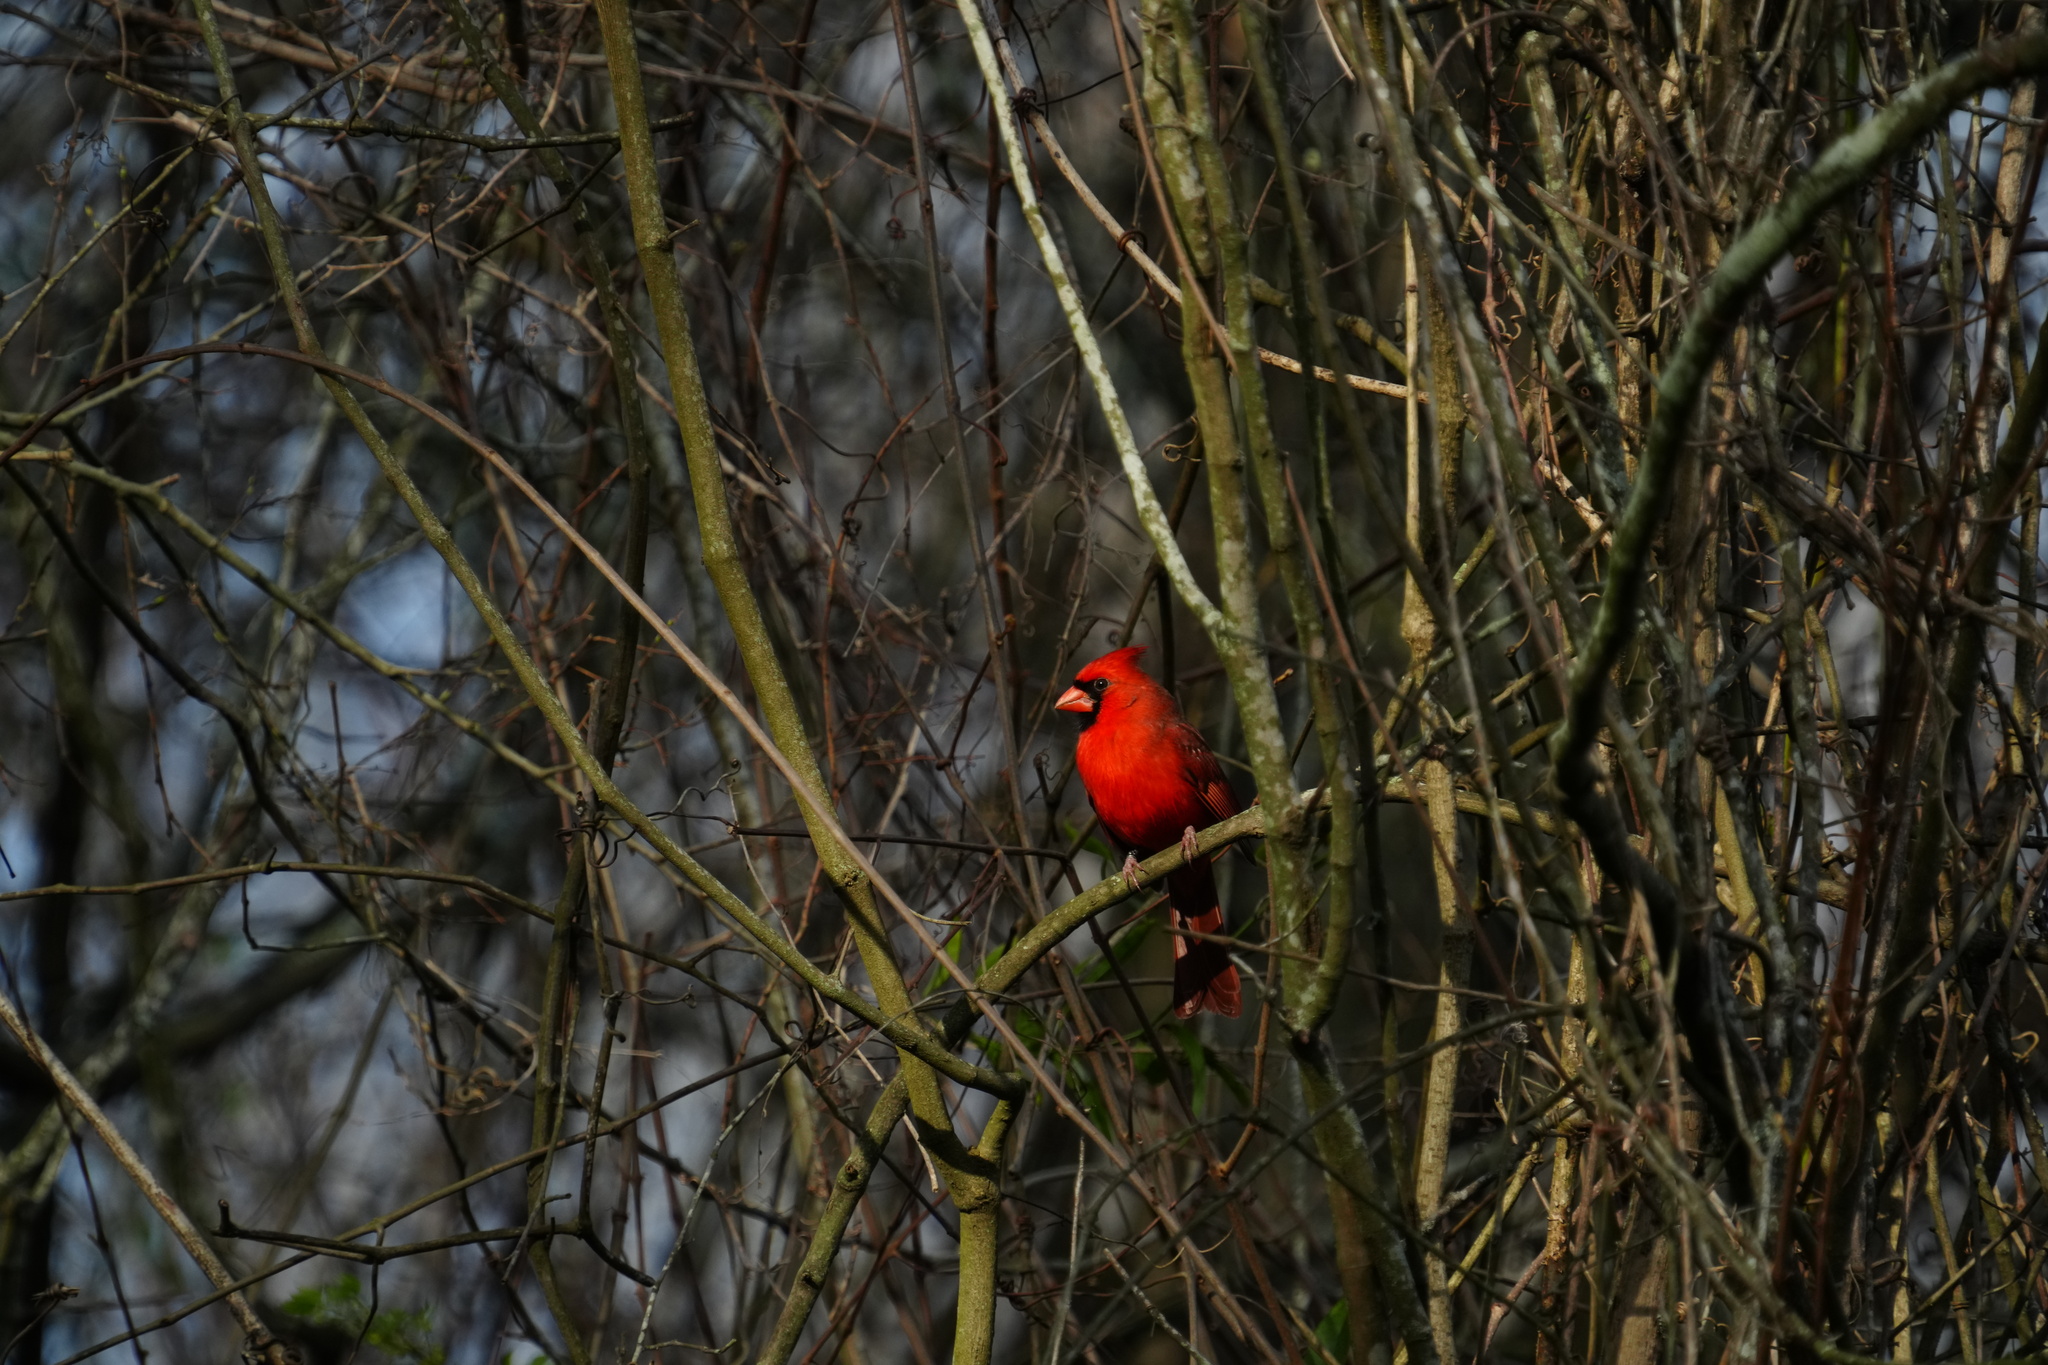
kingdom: Animalia
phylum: Chordata
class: Aves
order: Passeriformes
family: Cardinalidae
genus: Cardinalis
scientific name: Cardinalis cardinalis
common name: Northern cardinal
